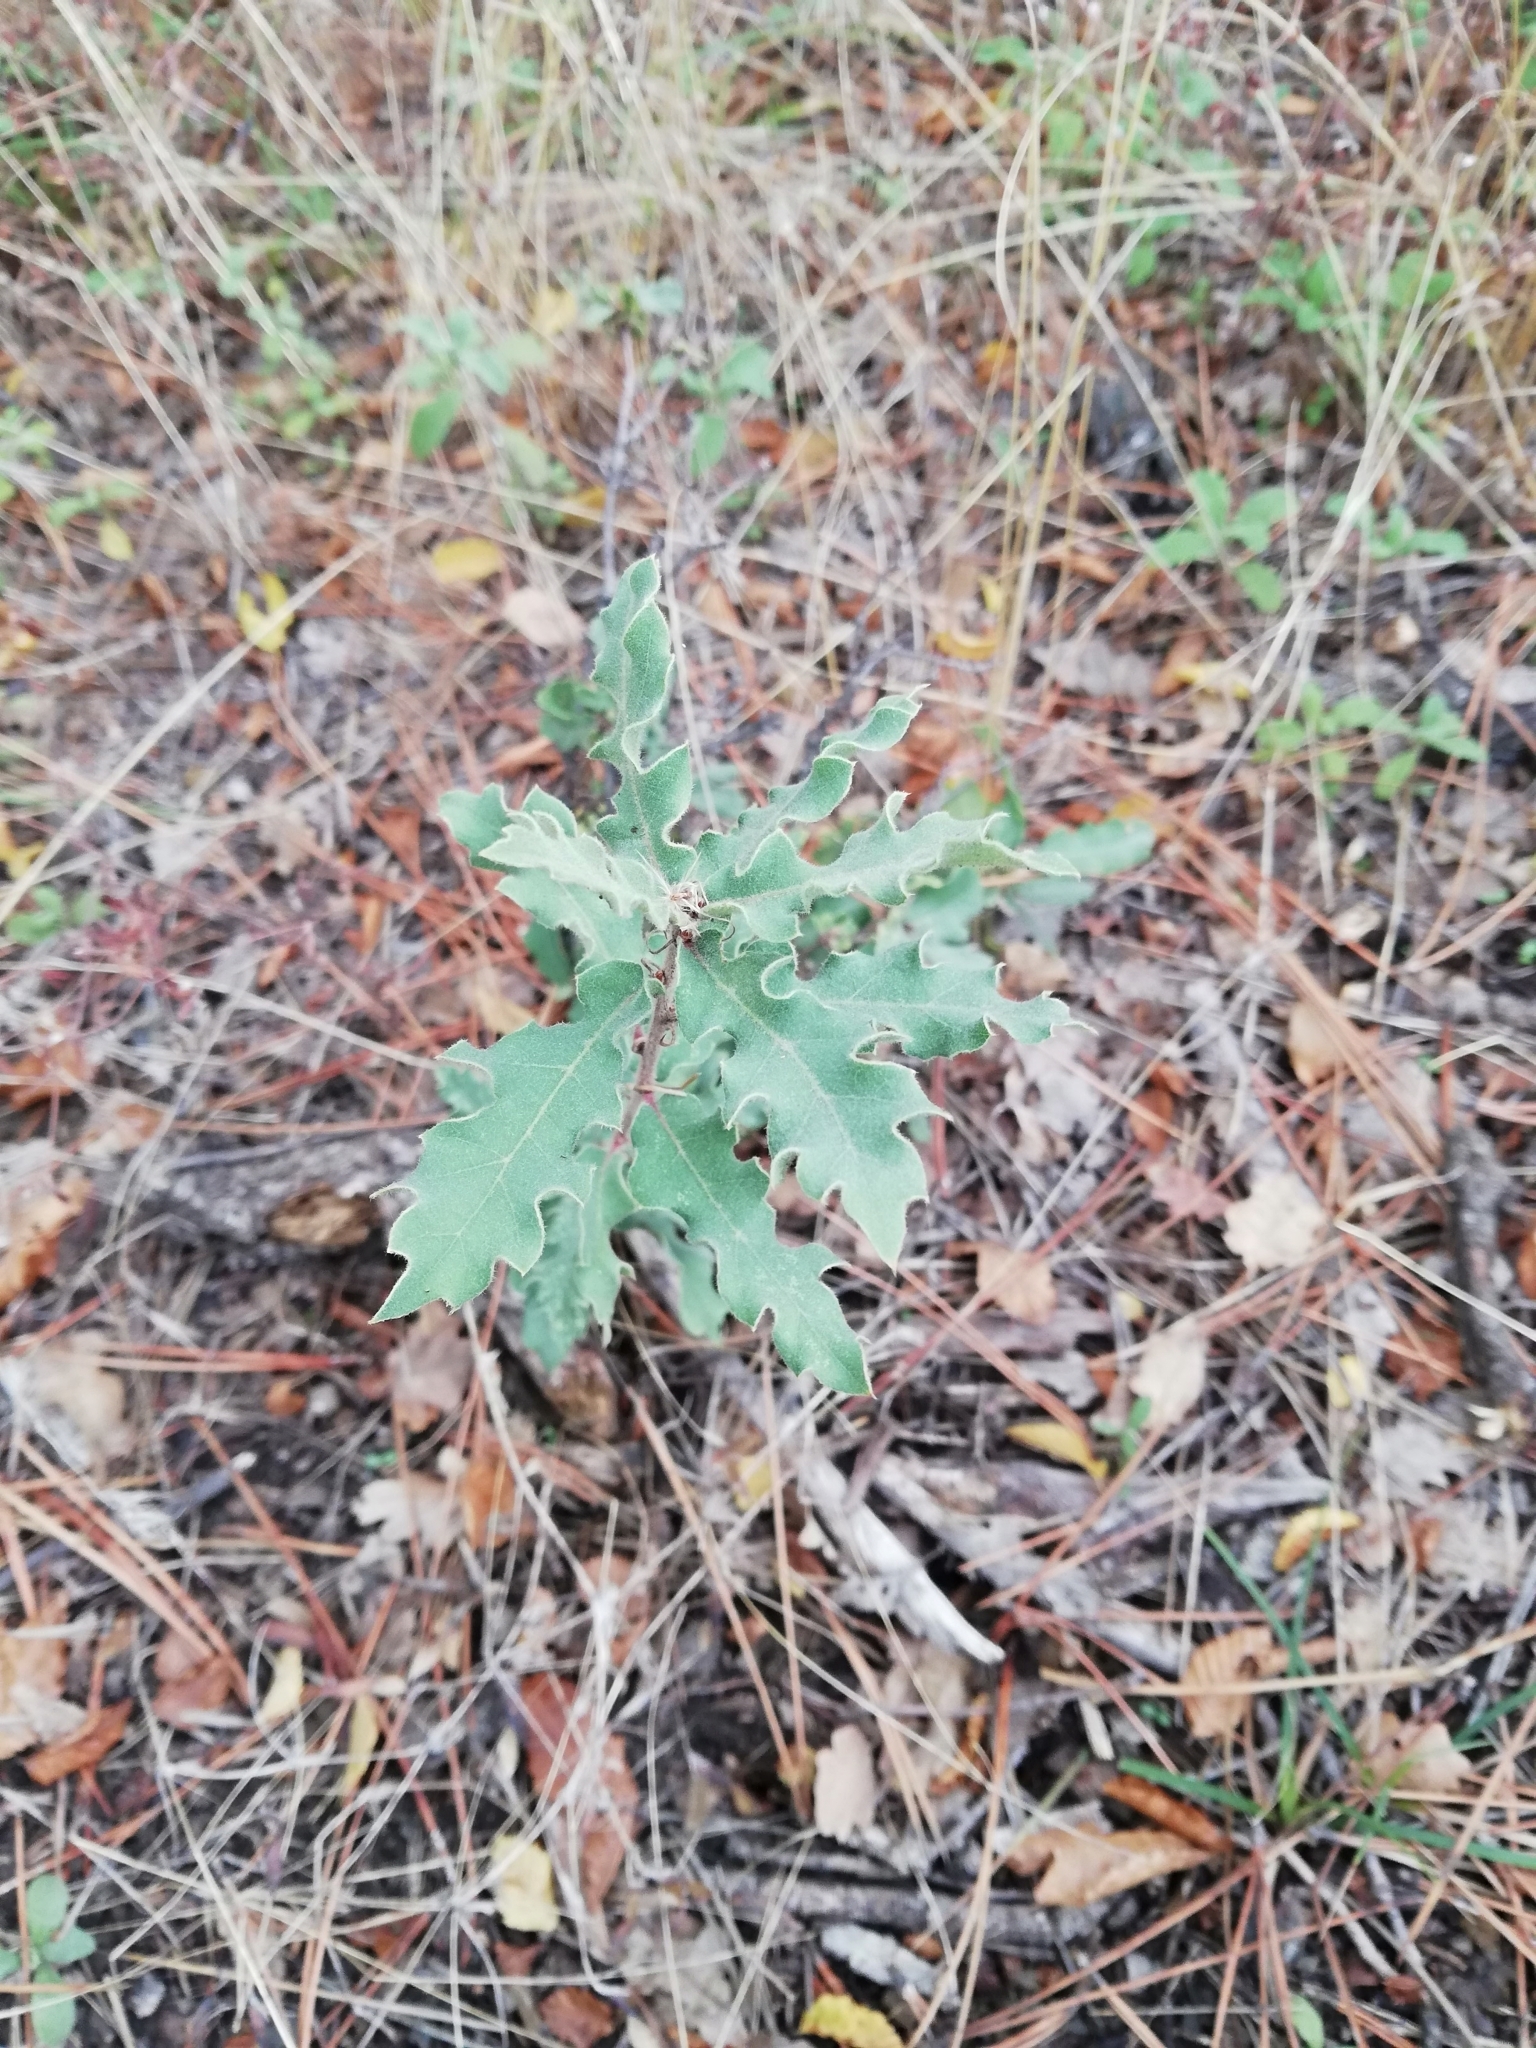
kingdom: Plantae
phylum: Tracheophyta
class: Magnoliopsida
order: Fagales
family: Fagaceae
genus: Quercus
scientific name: Quercus pubescens
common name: Downy oak
